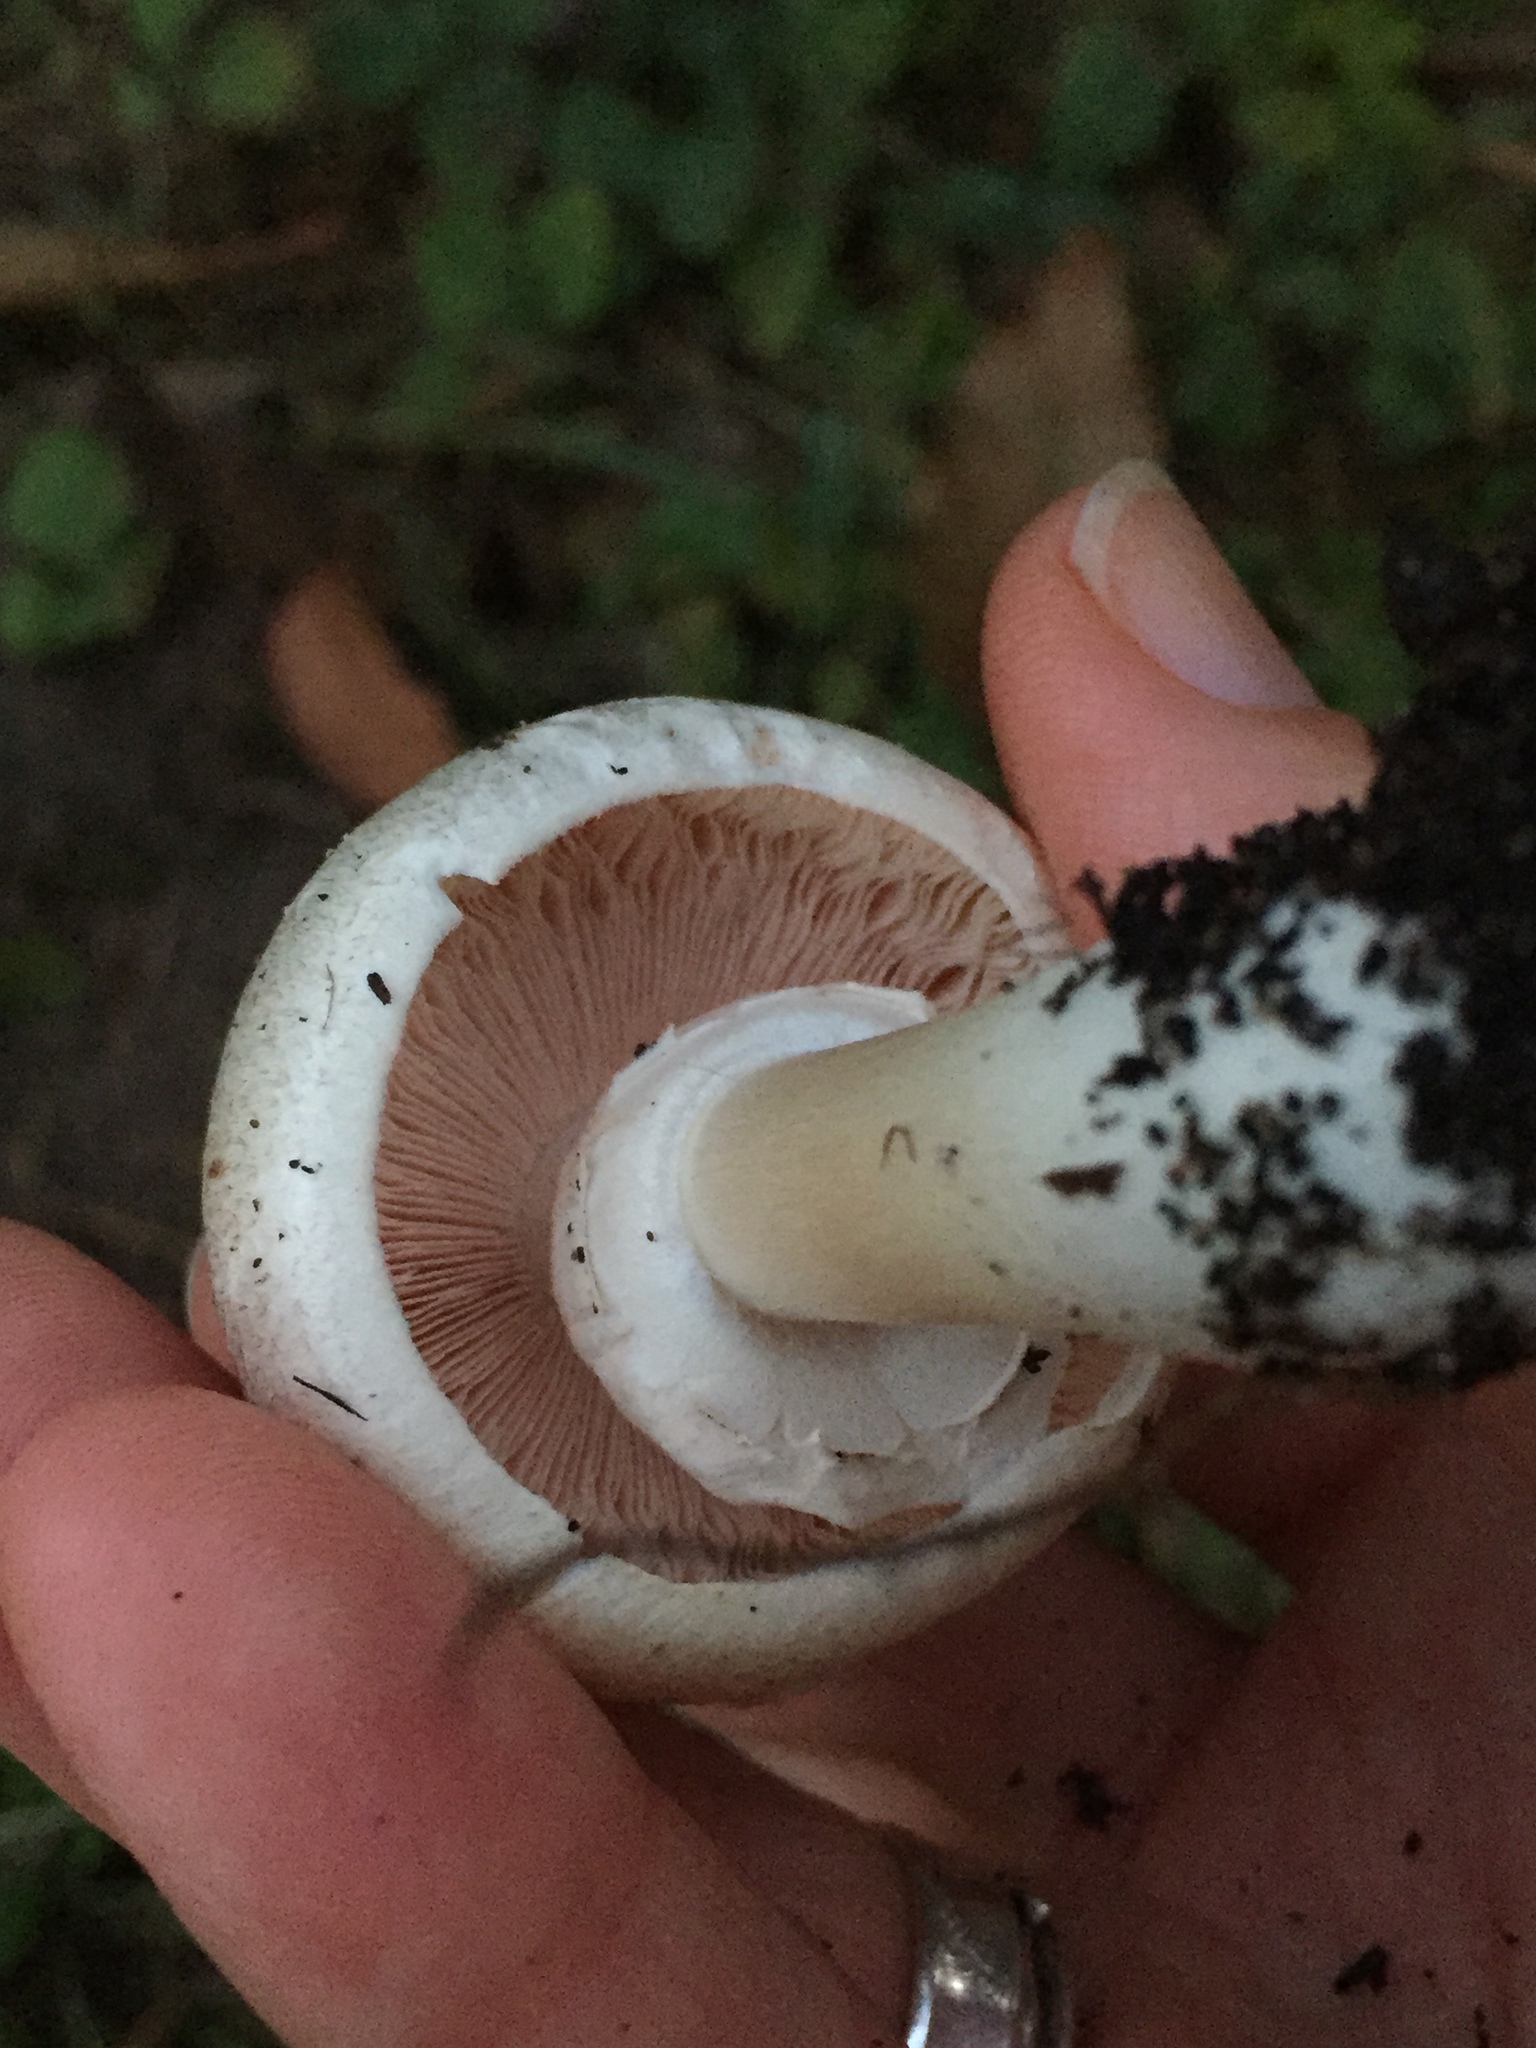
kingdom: Fungi
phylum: Basidiomycota
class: Agaricomycetes
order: Agaricales
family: Agaricaceae
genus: Agaricus
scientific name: Agaricus californicus
